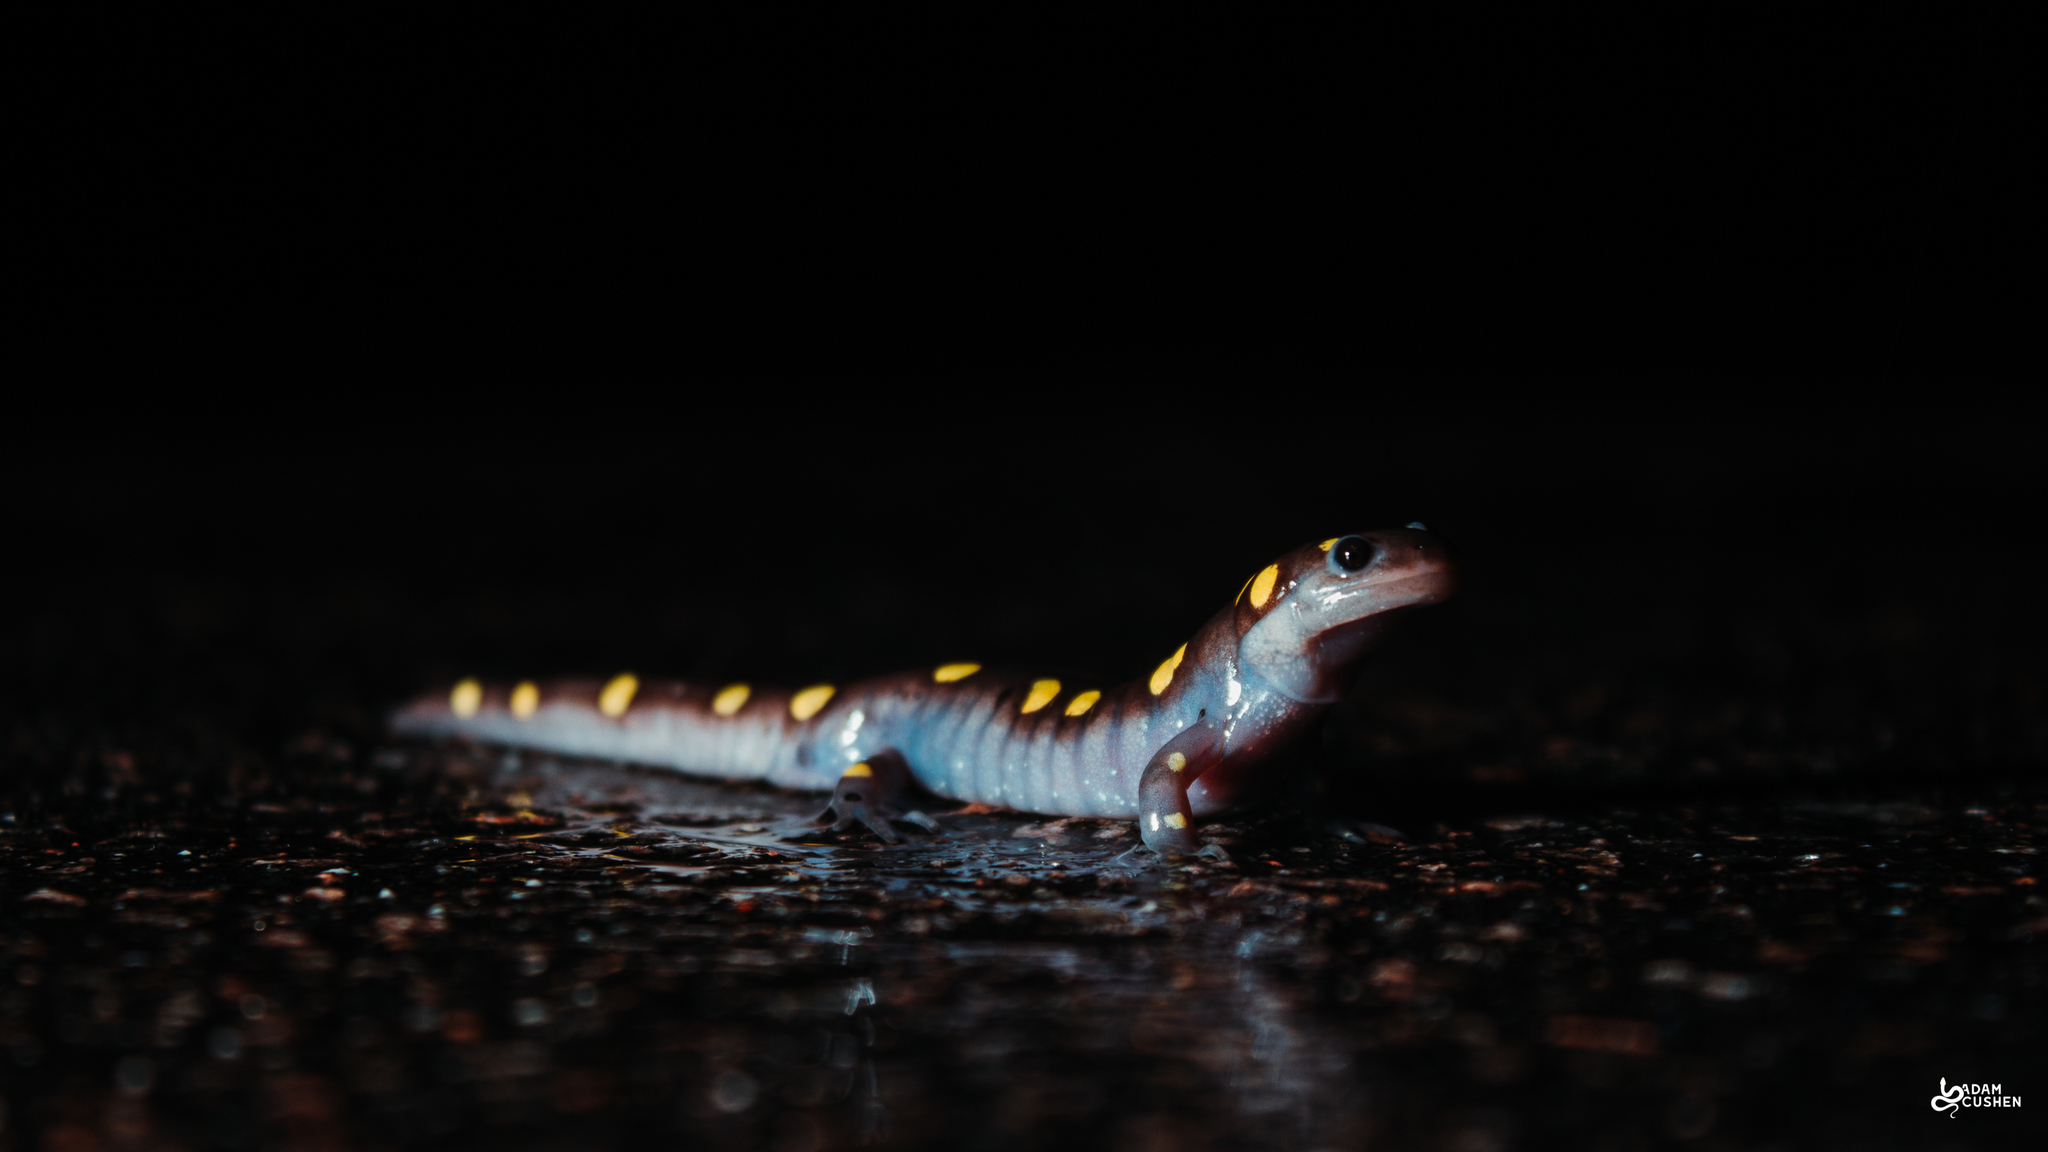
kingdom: Animalia
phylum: Chordata
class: Amphibia
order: Caudata
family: Ambystomatidae
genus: Ambystoma
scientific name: Ambystoma maculatum
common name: Spotted salamander
